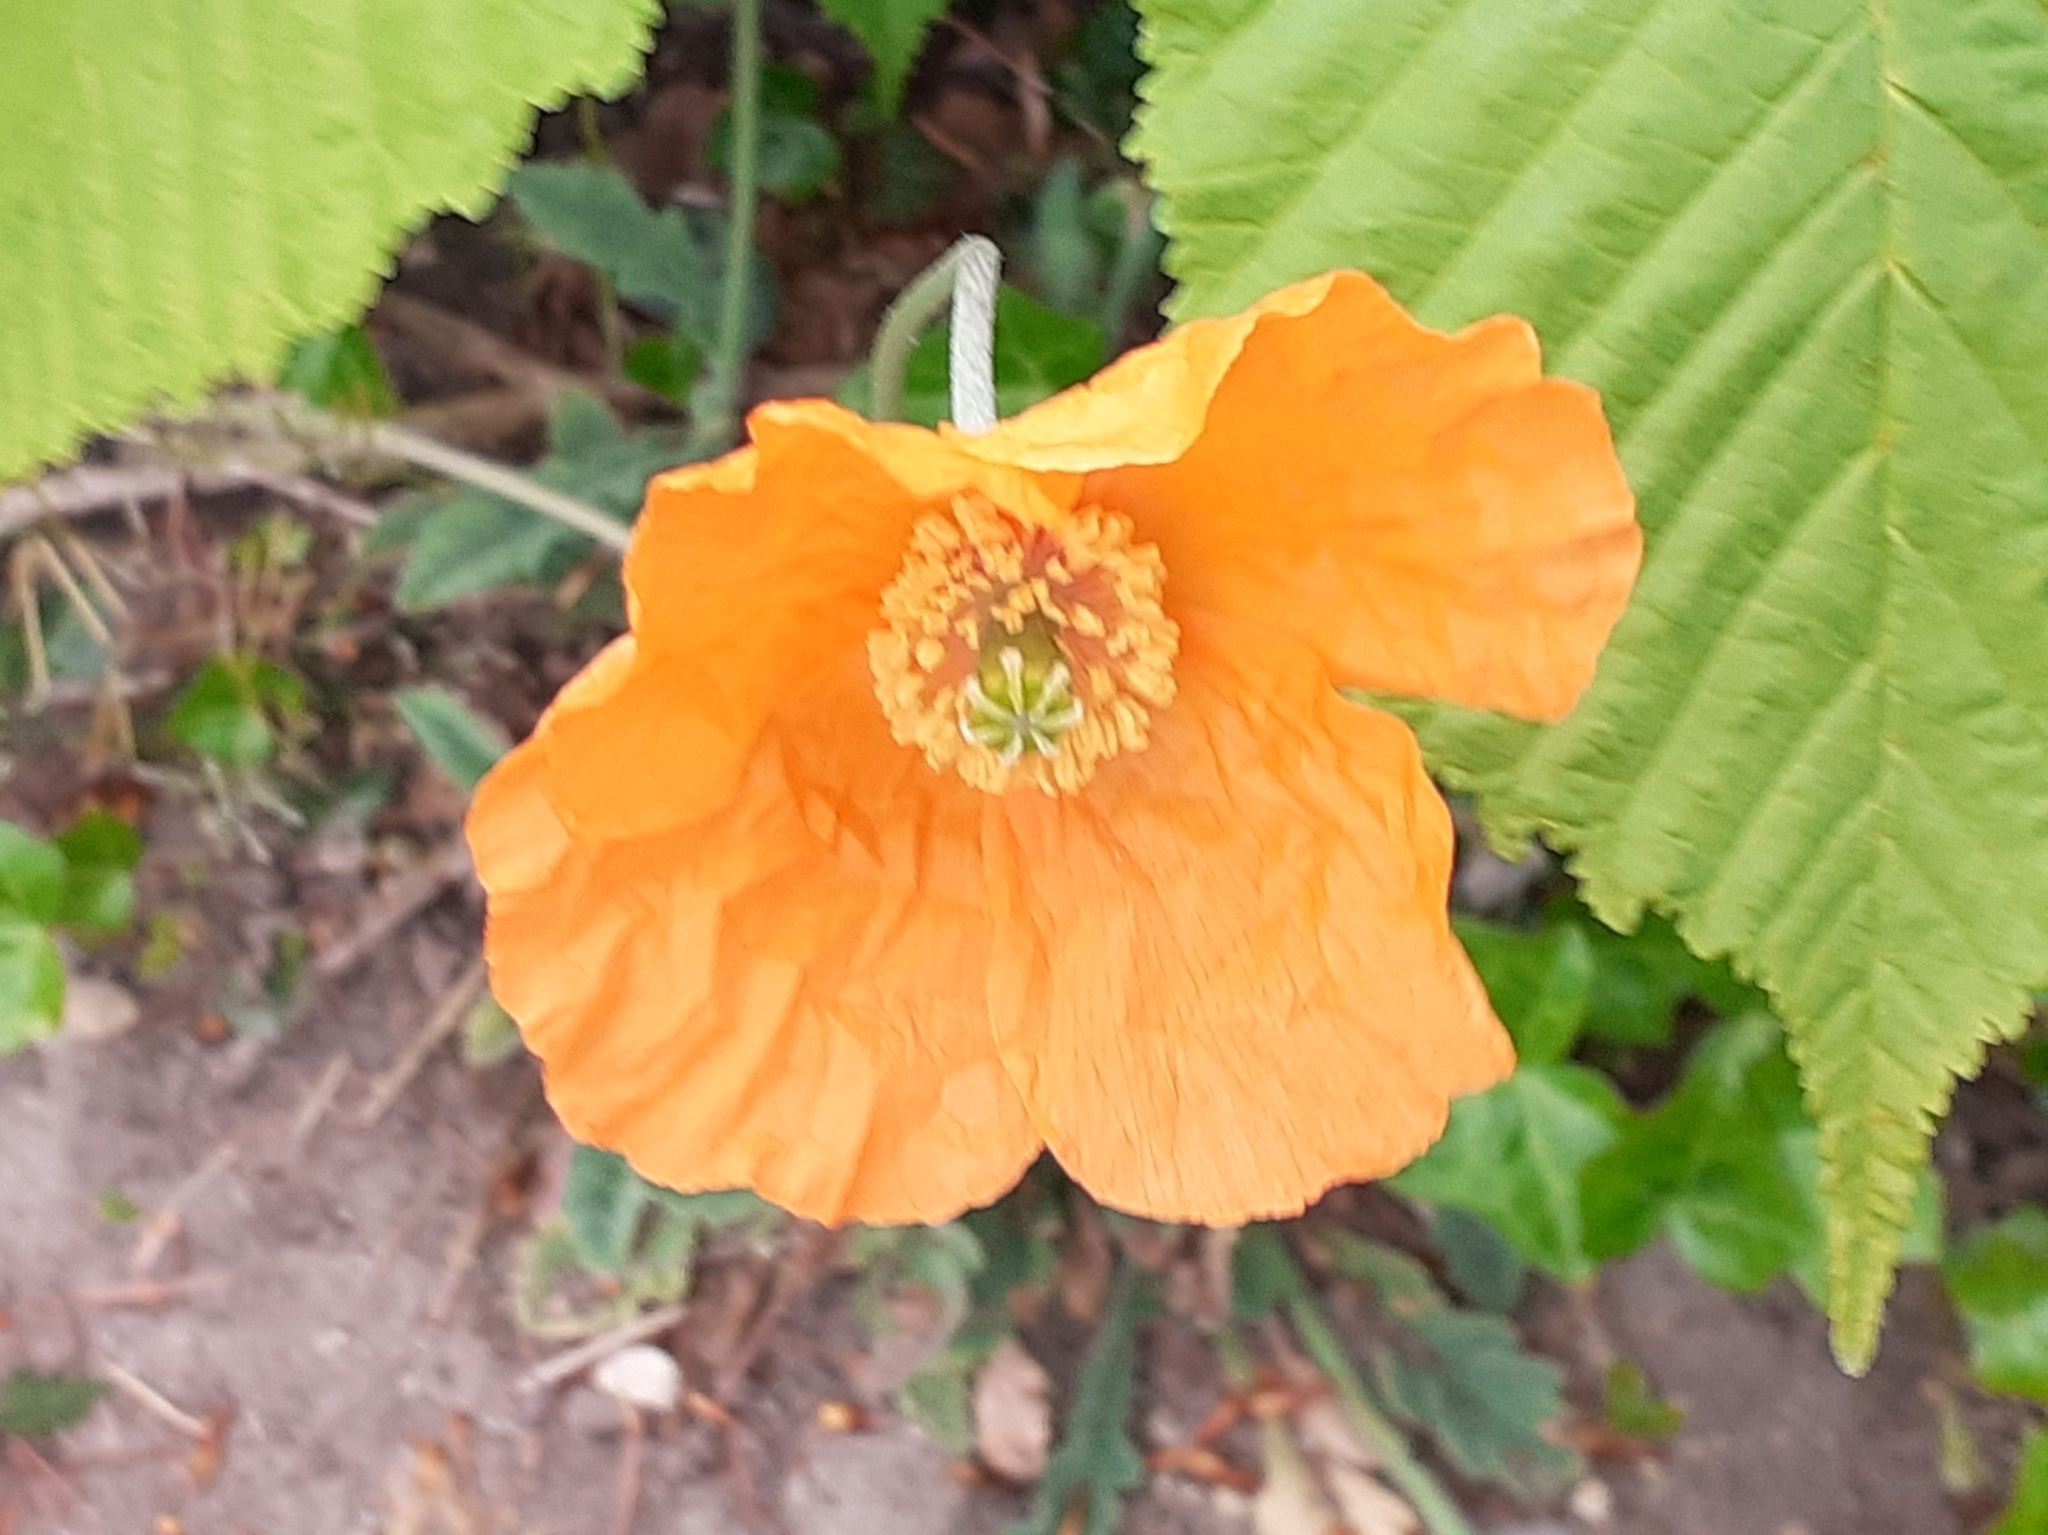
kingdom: Plantae
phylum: Tracheophyta
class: Magnoliopsida
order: Ranunculales
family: Papaveraceae
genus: Papaver
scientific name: Papaver cambricum
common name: Poppy
